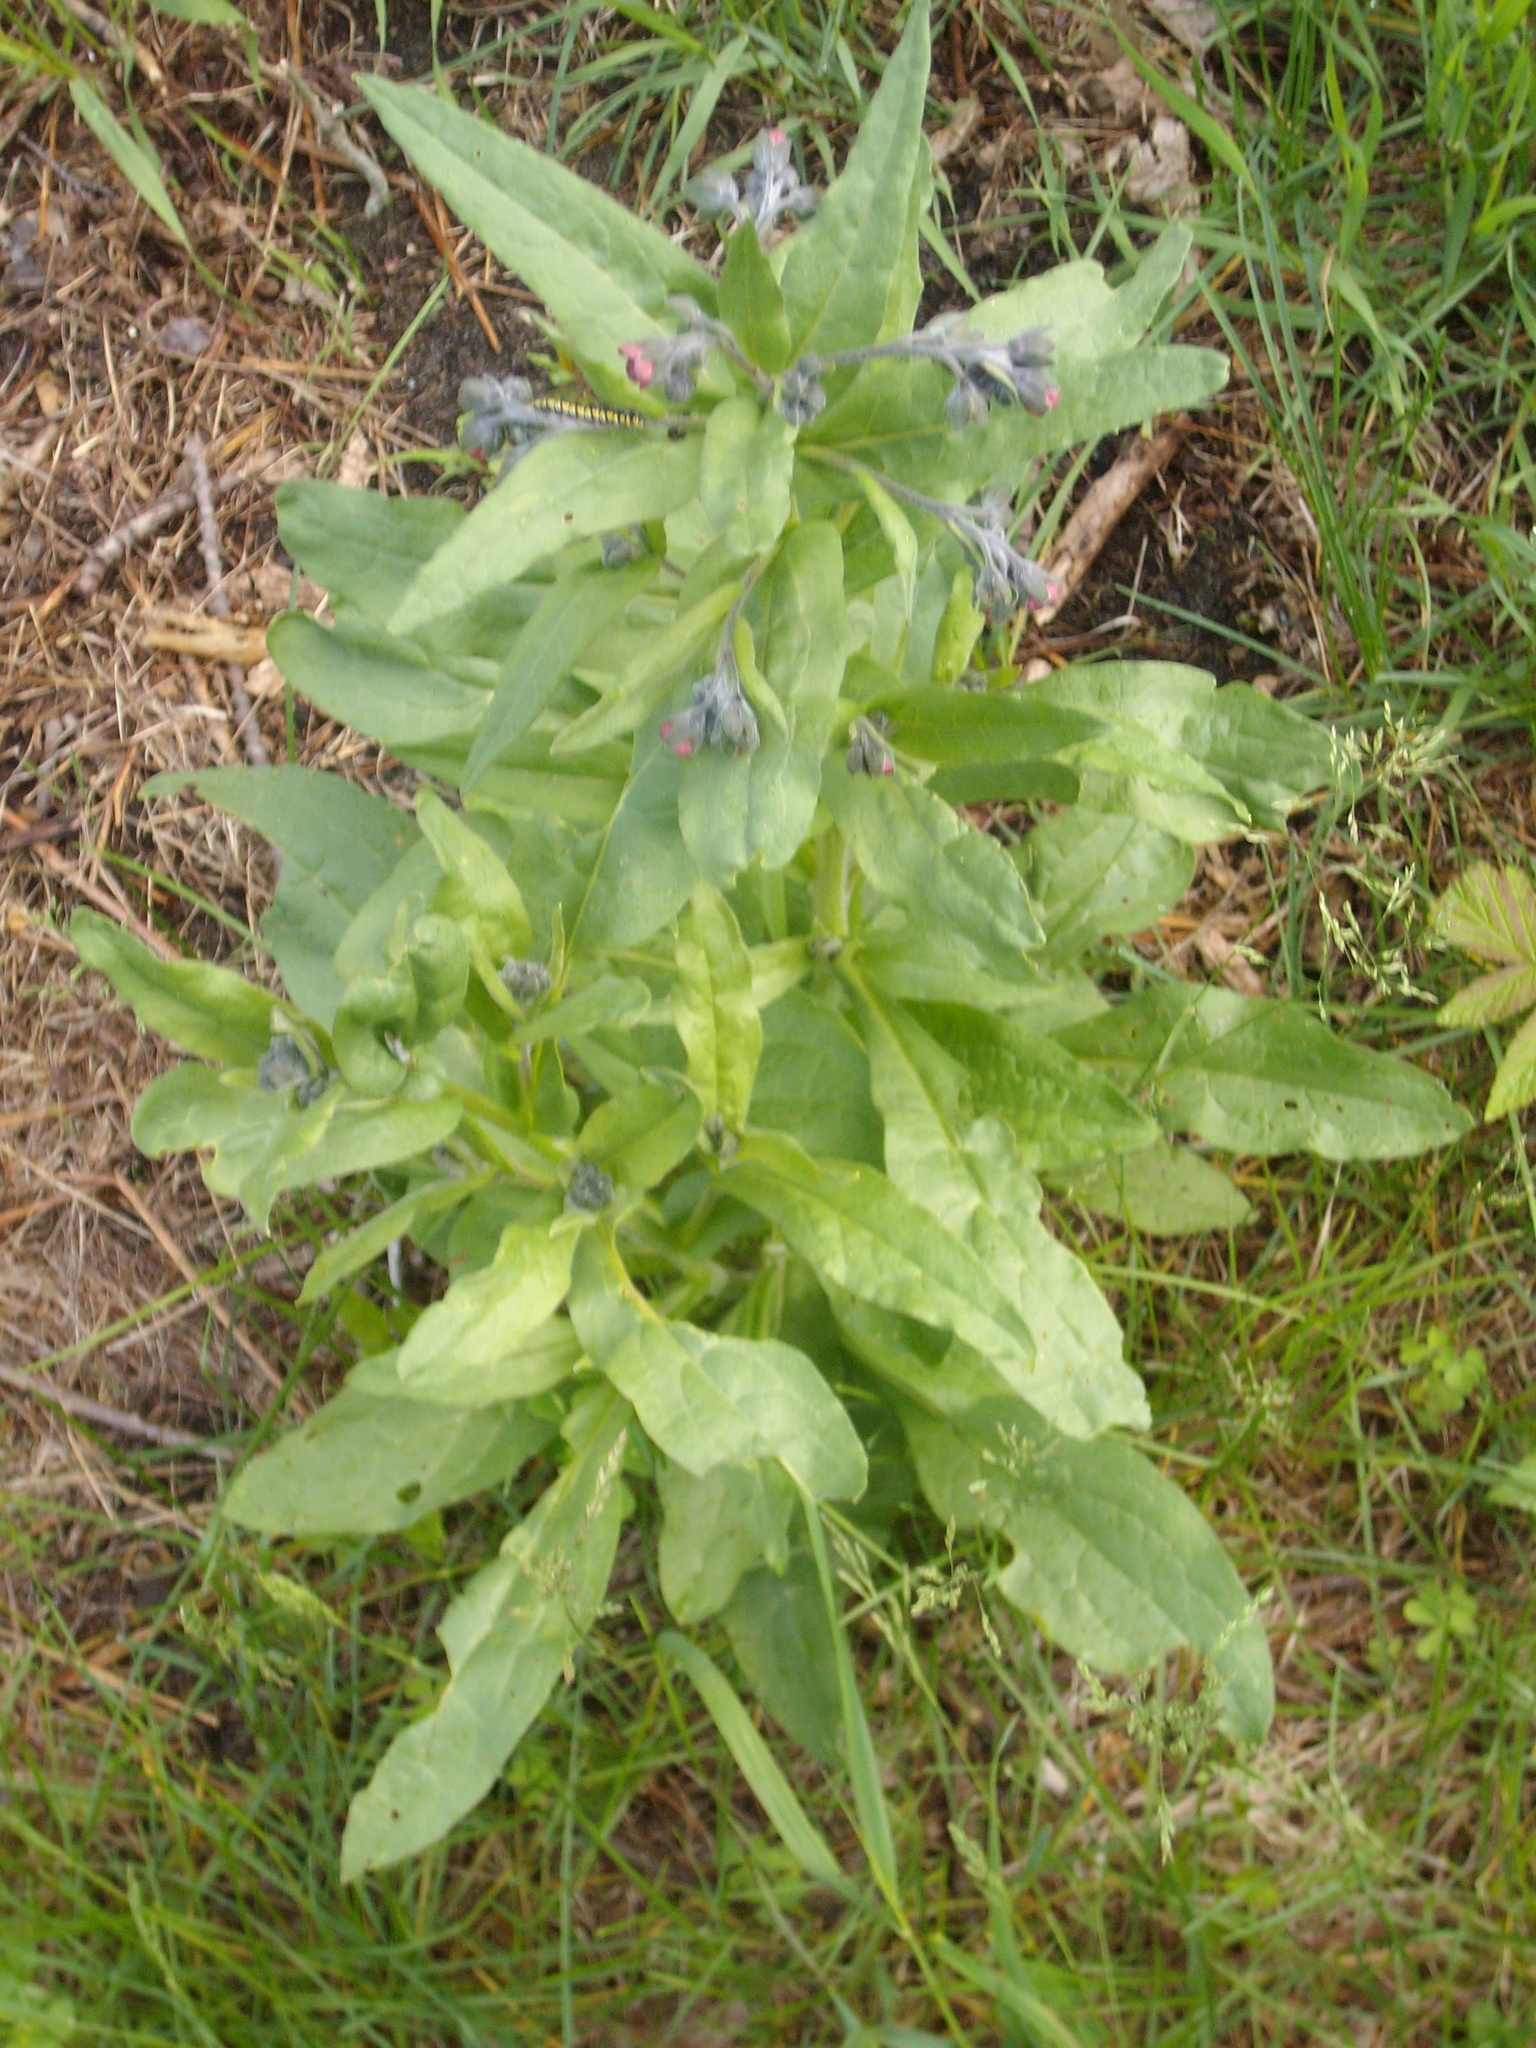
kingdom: Plantae
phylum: Tracheophyta
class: Magnoliopsida
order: Boraginales
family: Boraginaceae
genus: Cynoglossum
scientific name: Cynoglossum officinale
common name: Hound's-tongue
